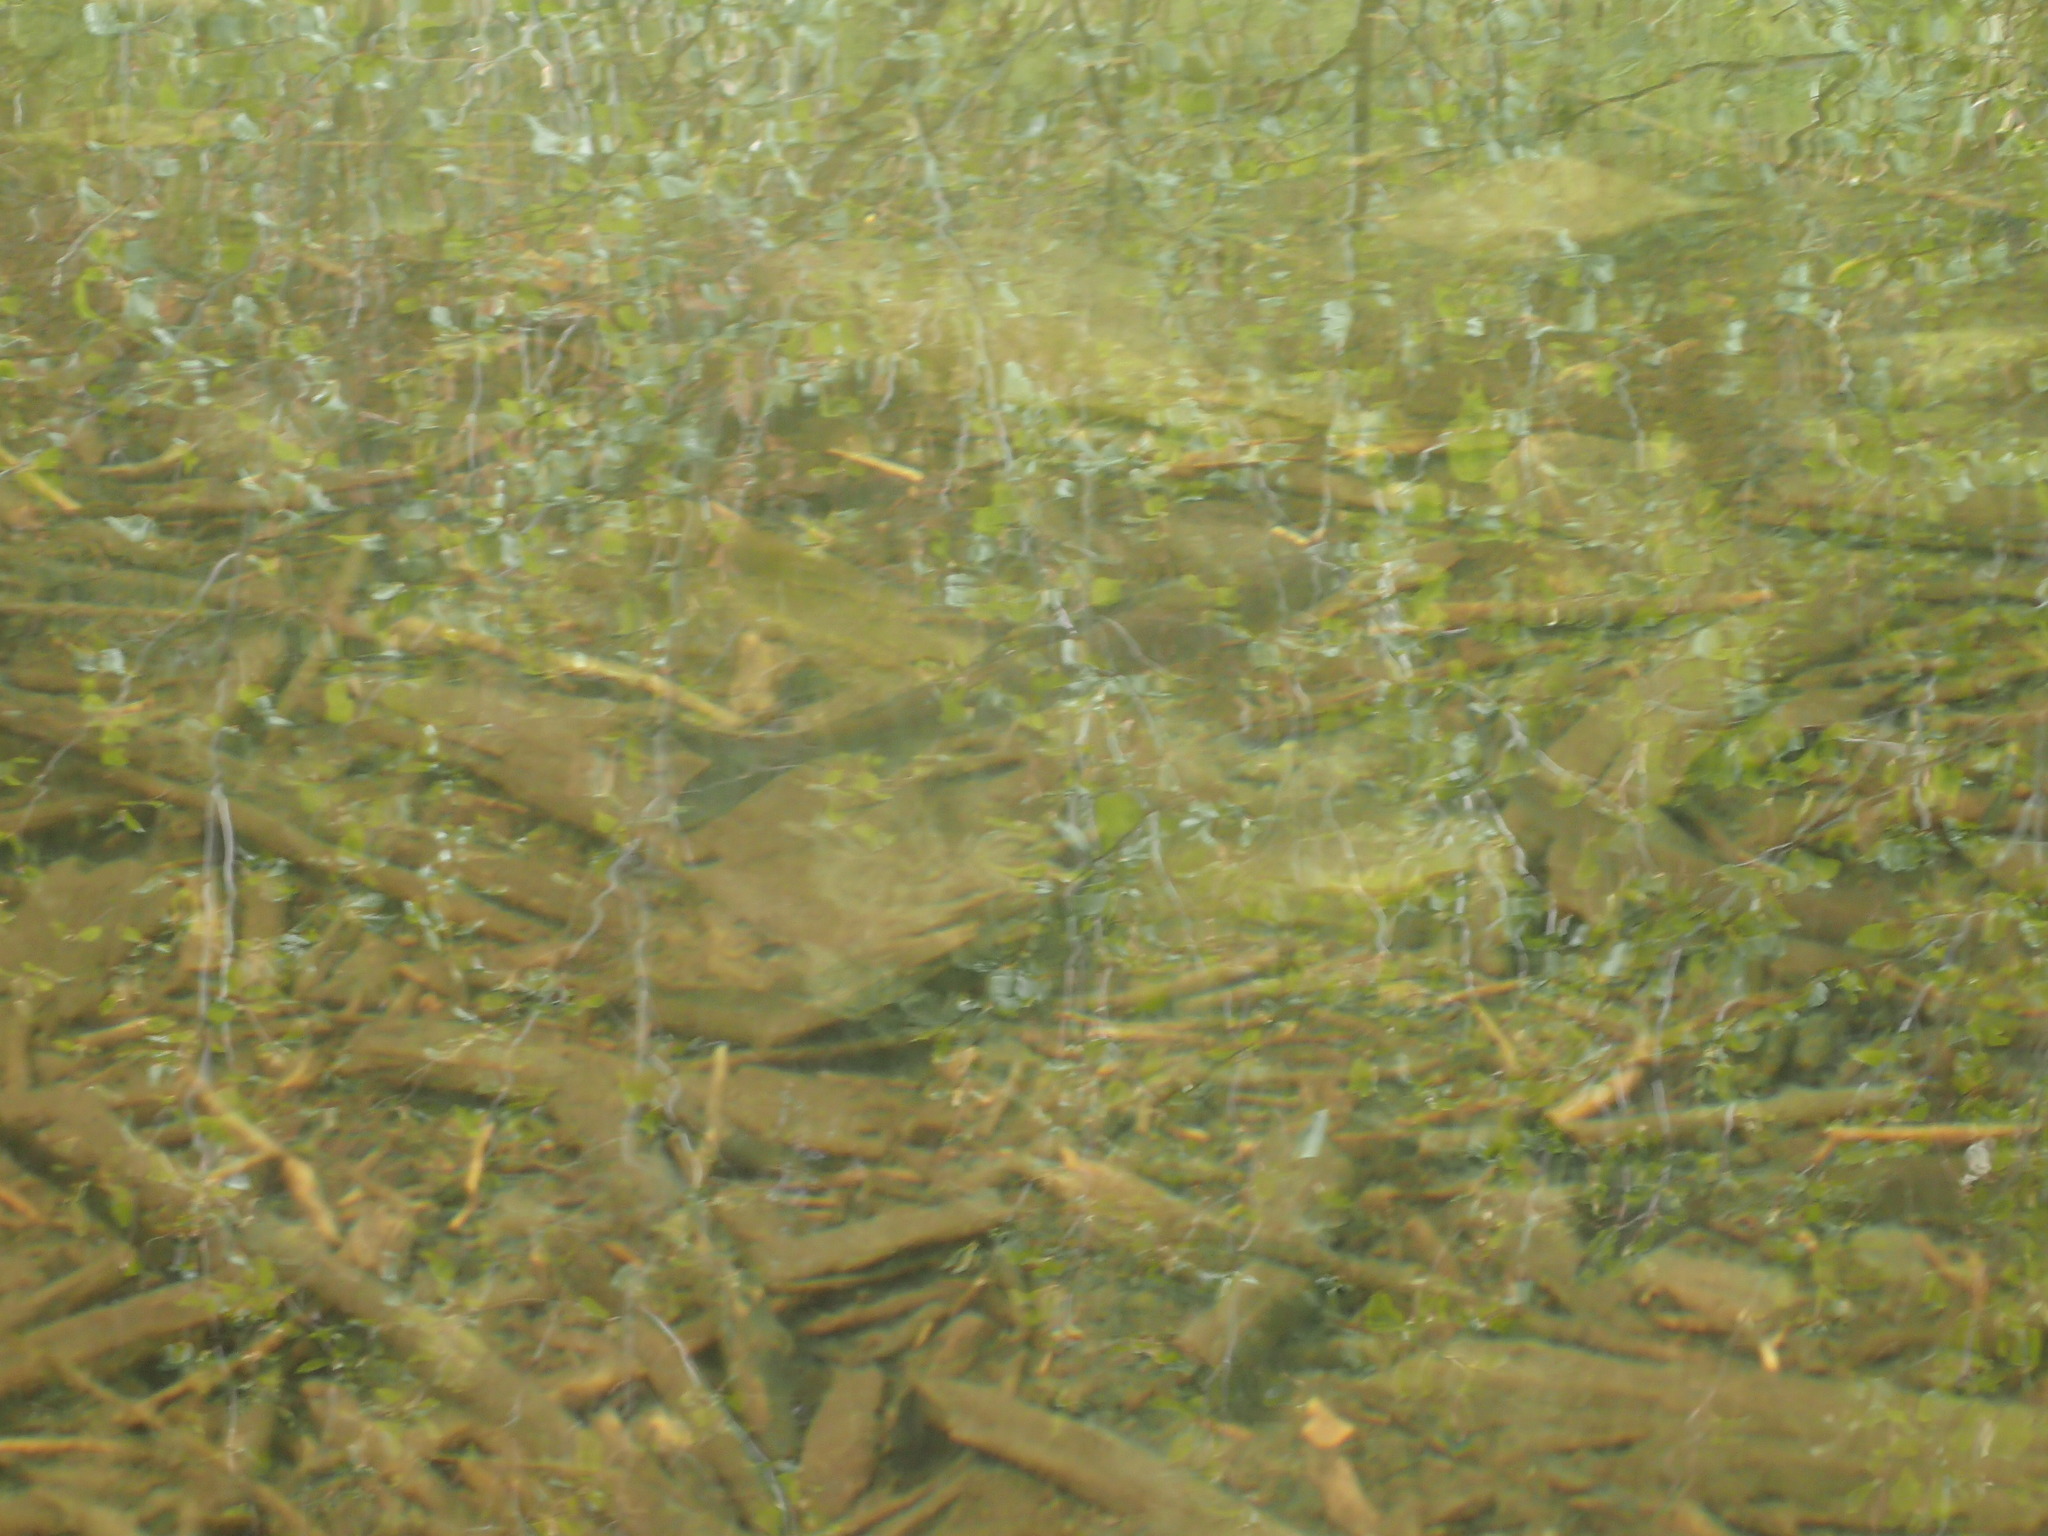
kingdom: Animalia
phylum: Chordata
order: Salmoniformes
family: Salmonidae
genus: Thymallus
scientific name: Thymallus arcticus
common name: Arctic grayling
